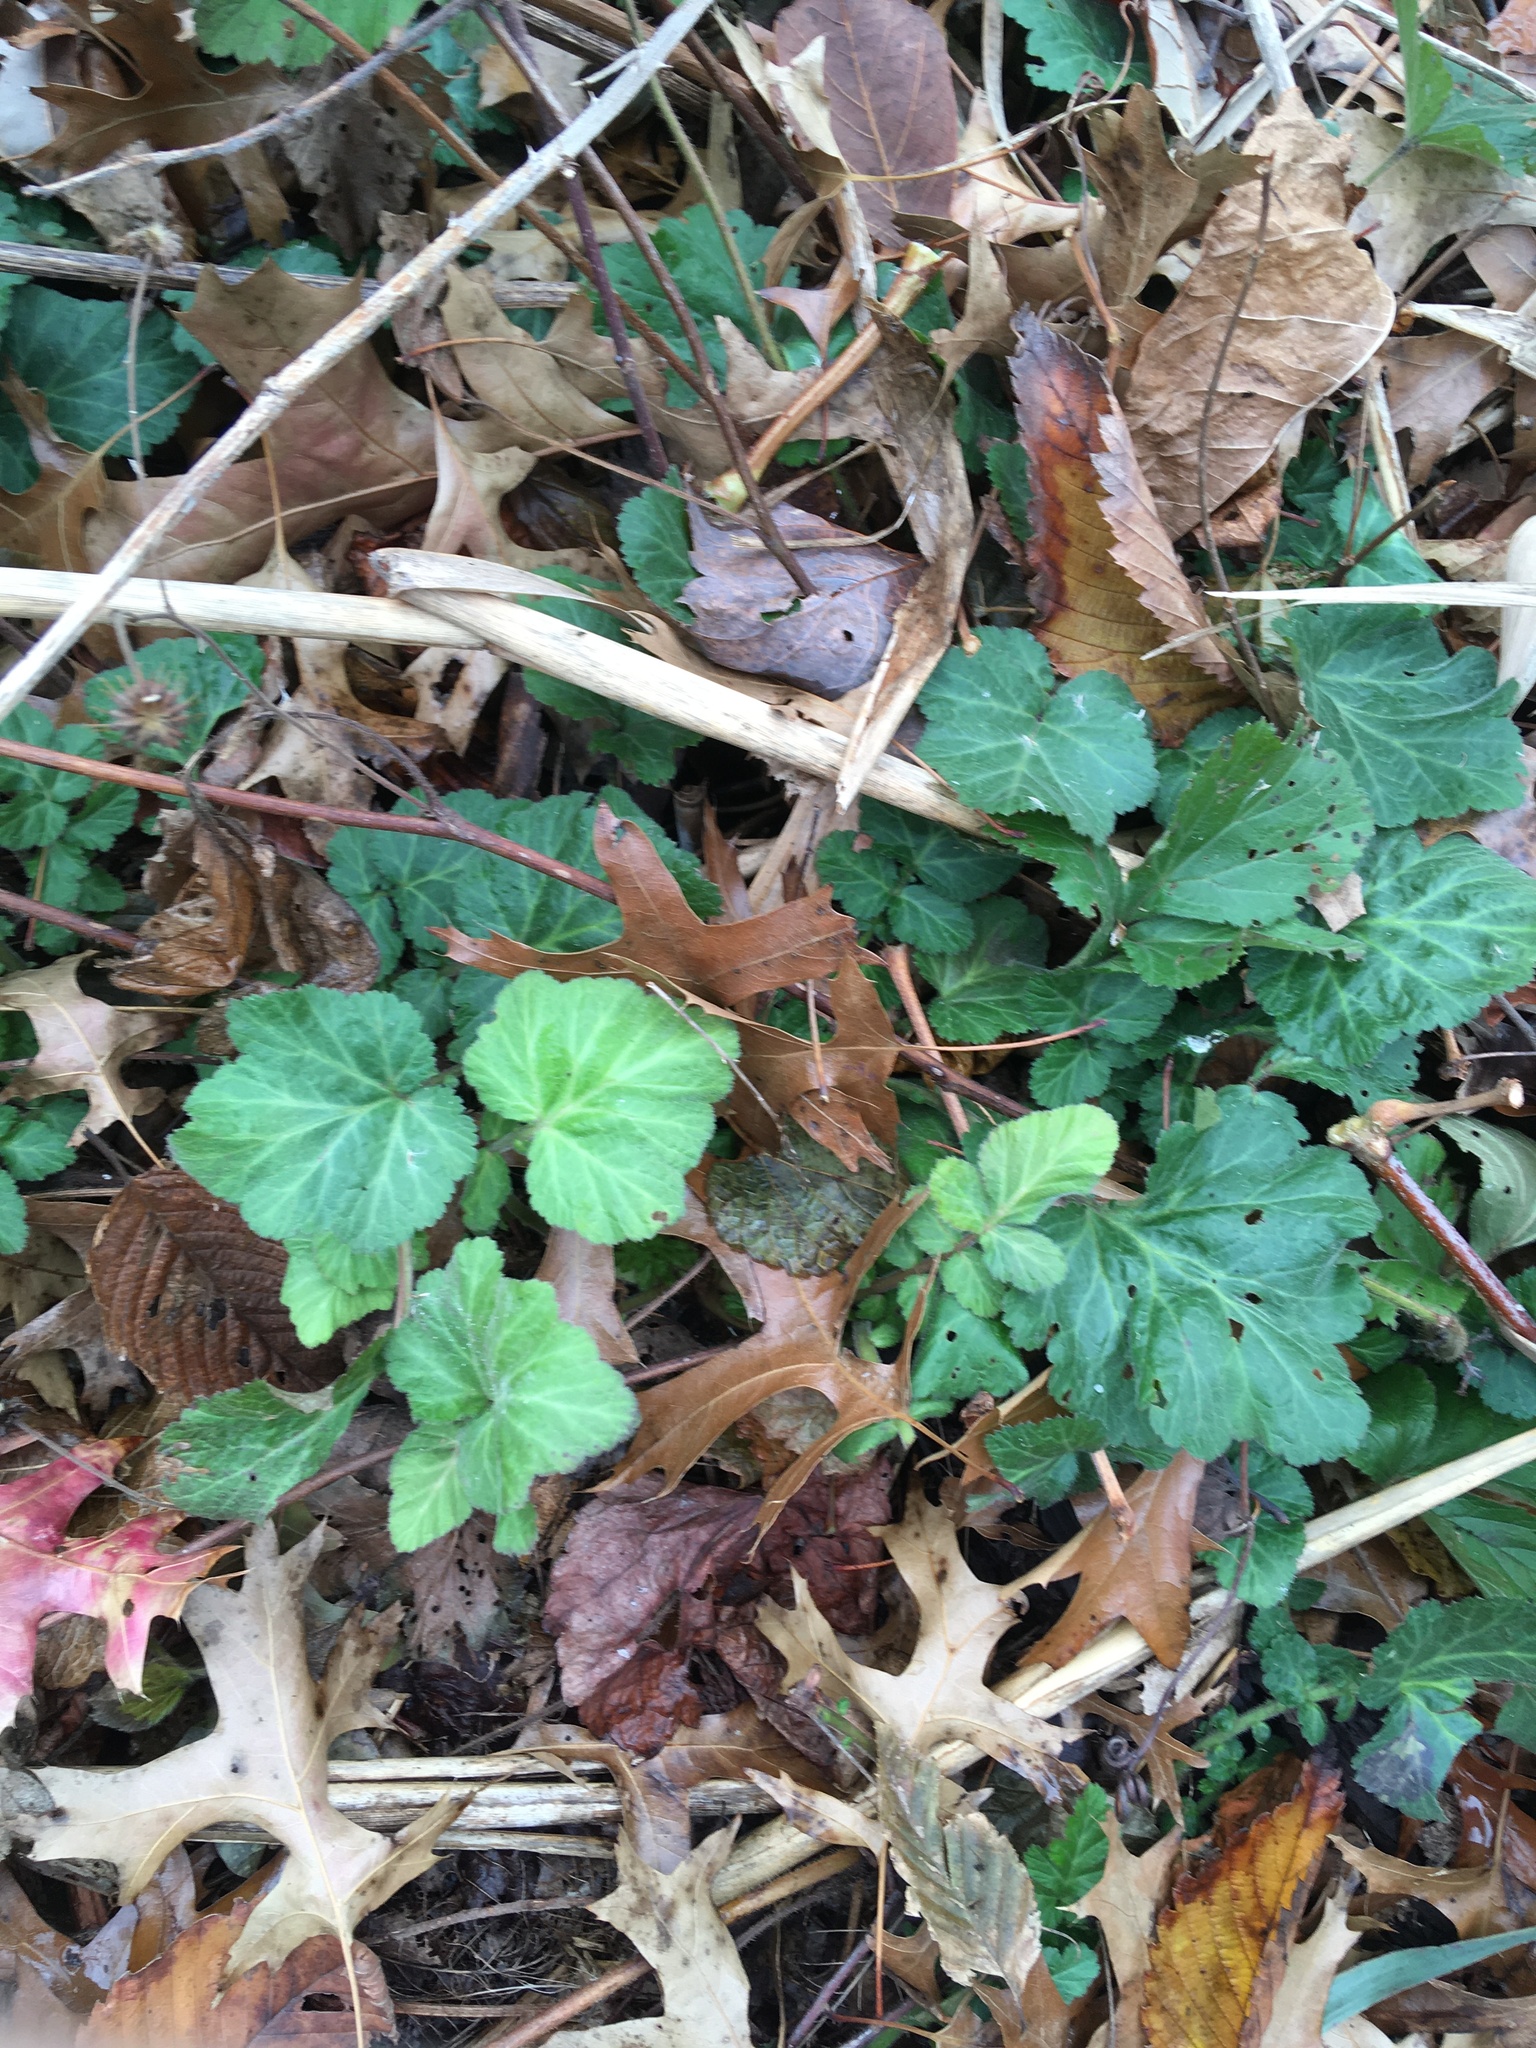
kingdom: Plantae
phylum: Tracheophyta
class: Magnoliopsida
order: Rosales
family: Rosaceae
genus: Geum
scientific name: Geum canadense
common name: White avens
